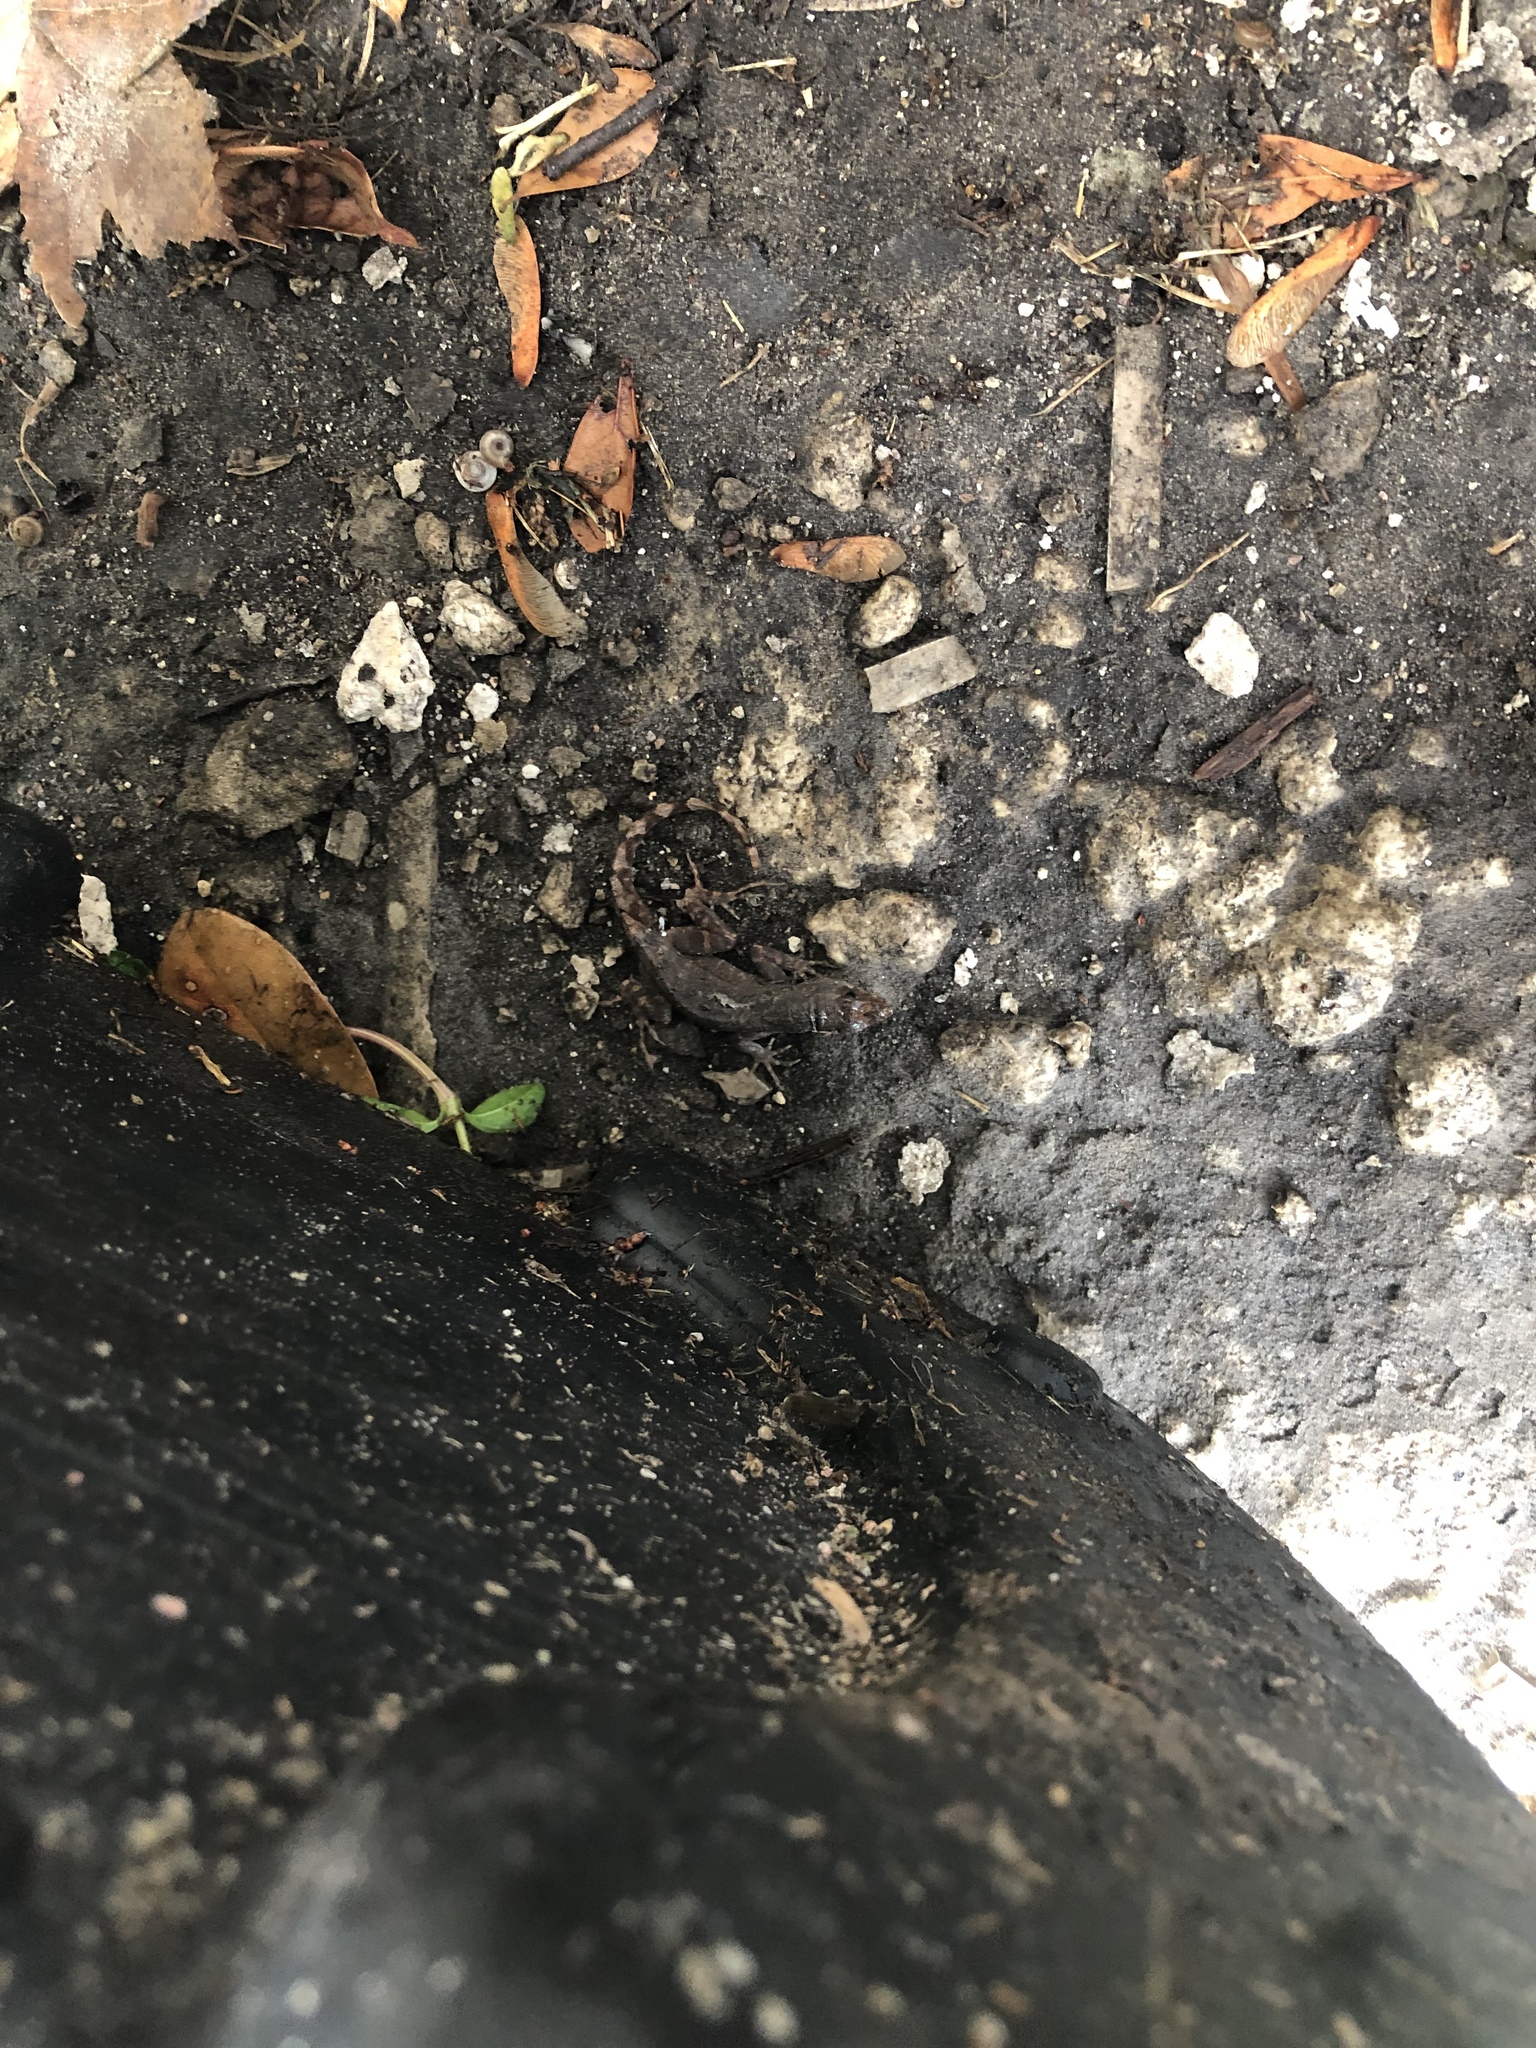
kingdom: Animalia
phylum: Chordata
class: Squamata
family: Dactyloidae
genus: Anolis
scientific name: Anolis sagrei
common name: Brown anole
